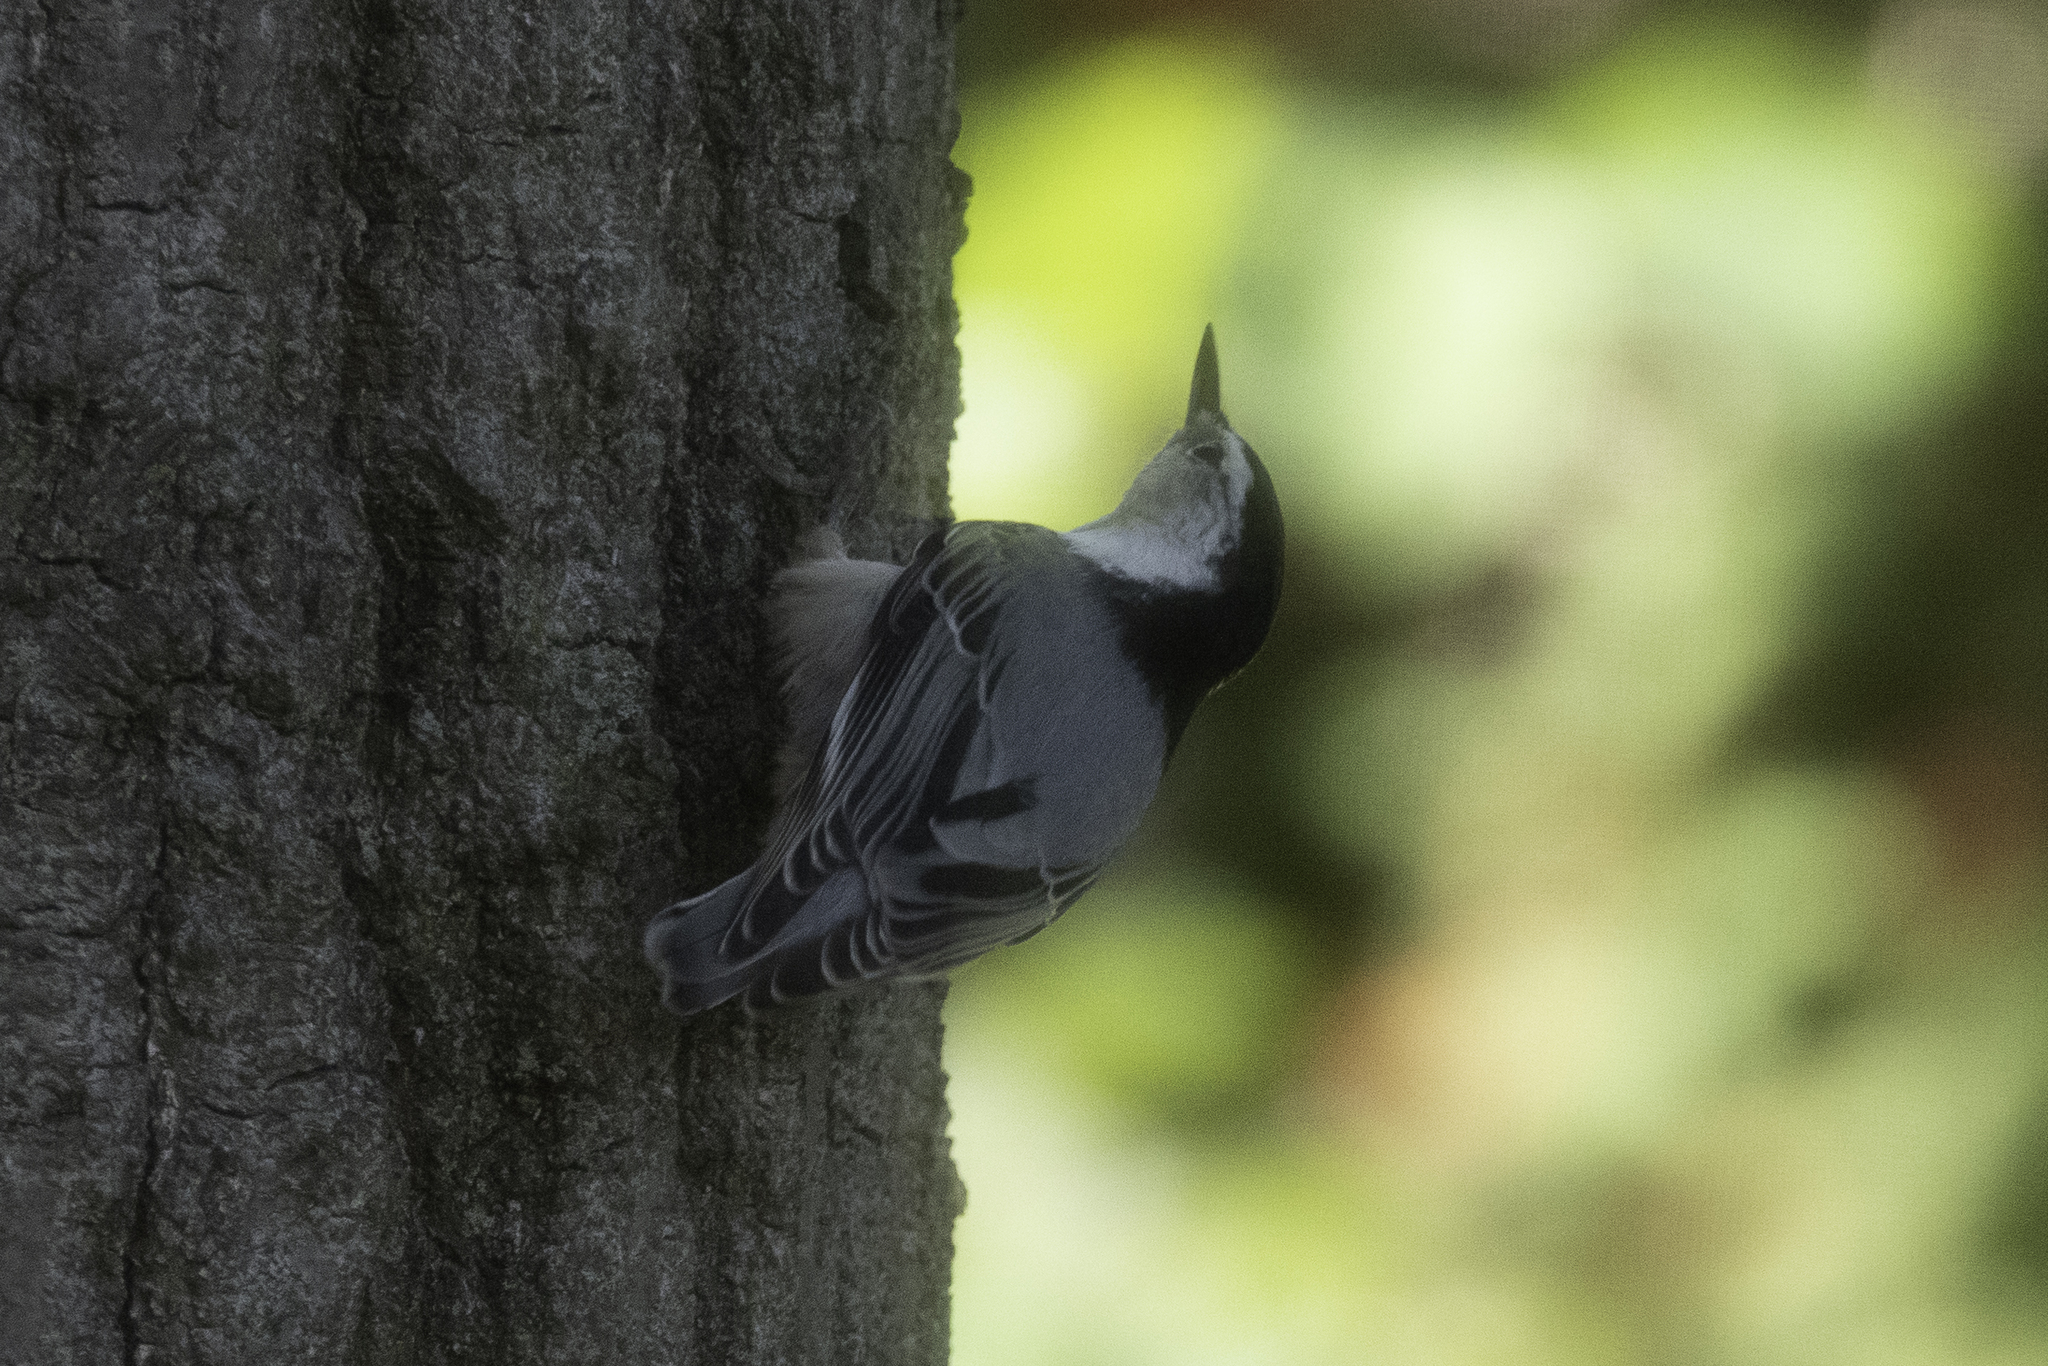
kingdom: Animalia
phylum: Chordata
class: Aves
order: Passeriformes
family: Sittidae
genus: Sitta
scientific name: Sitta carolinensis
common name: White-breasted nuthatch
